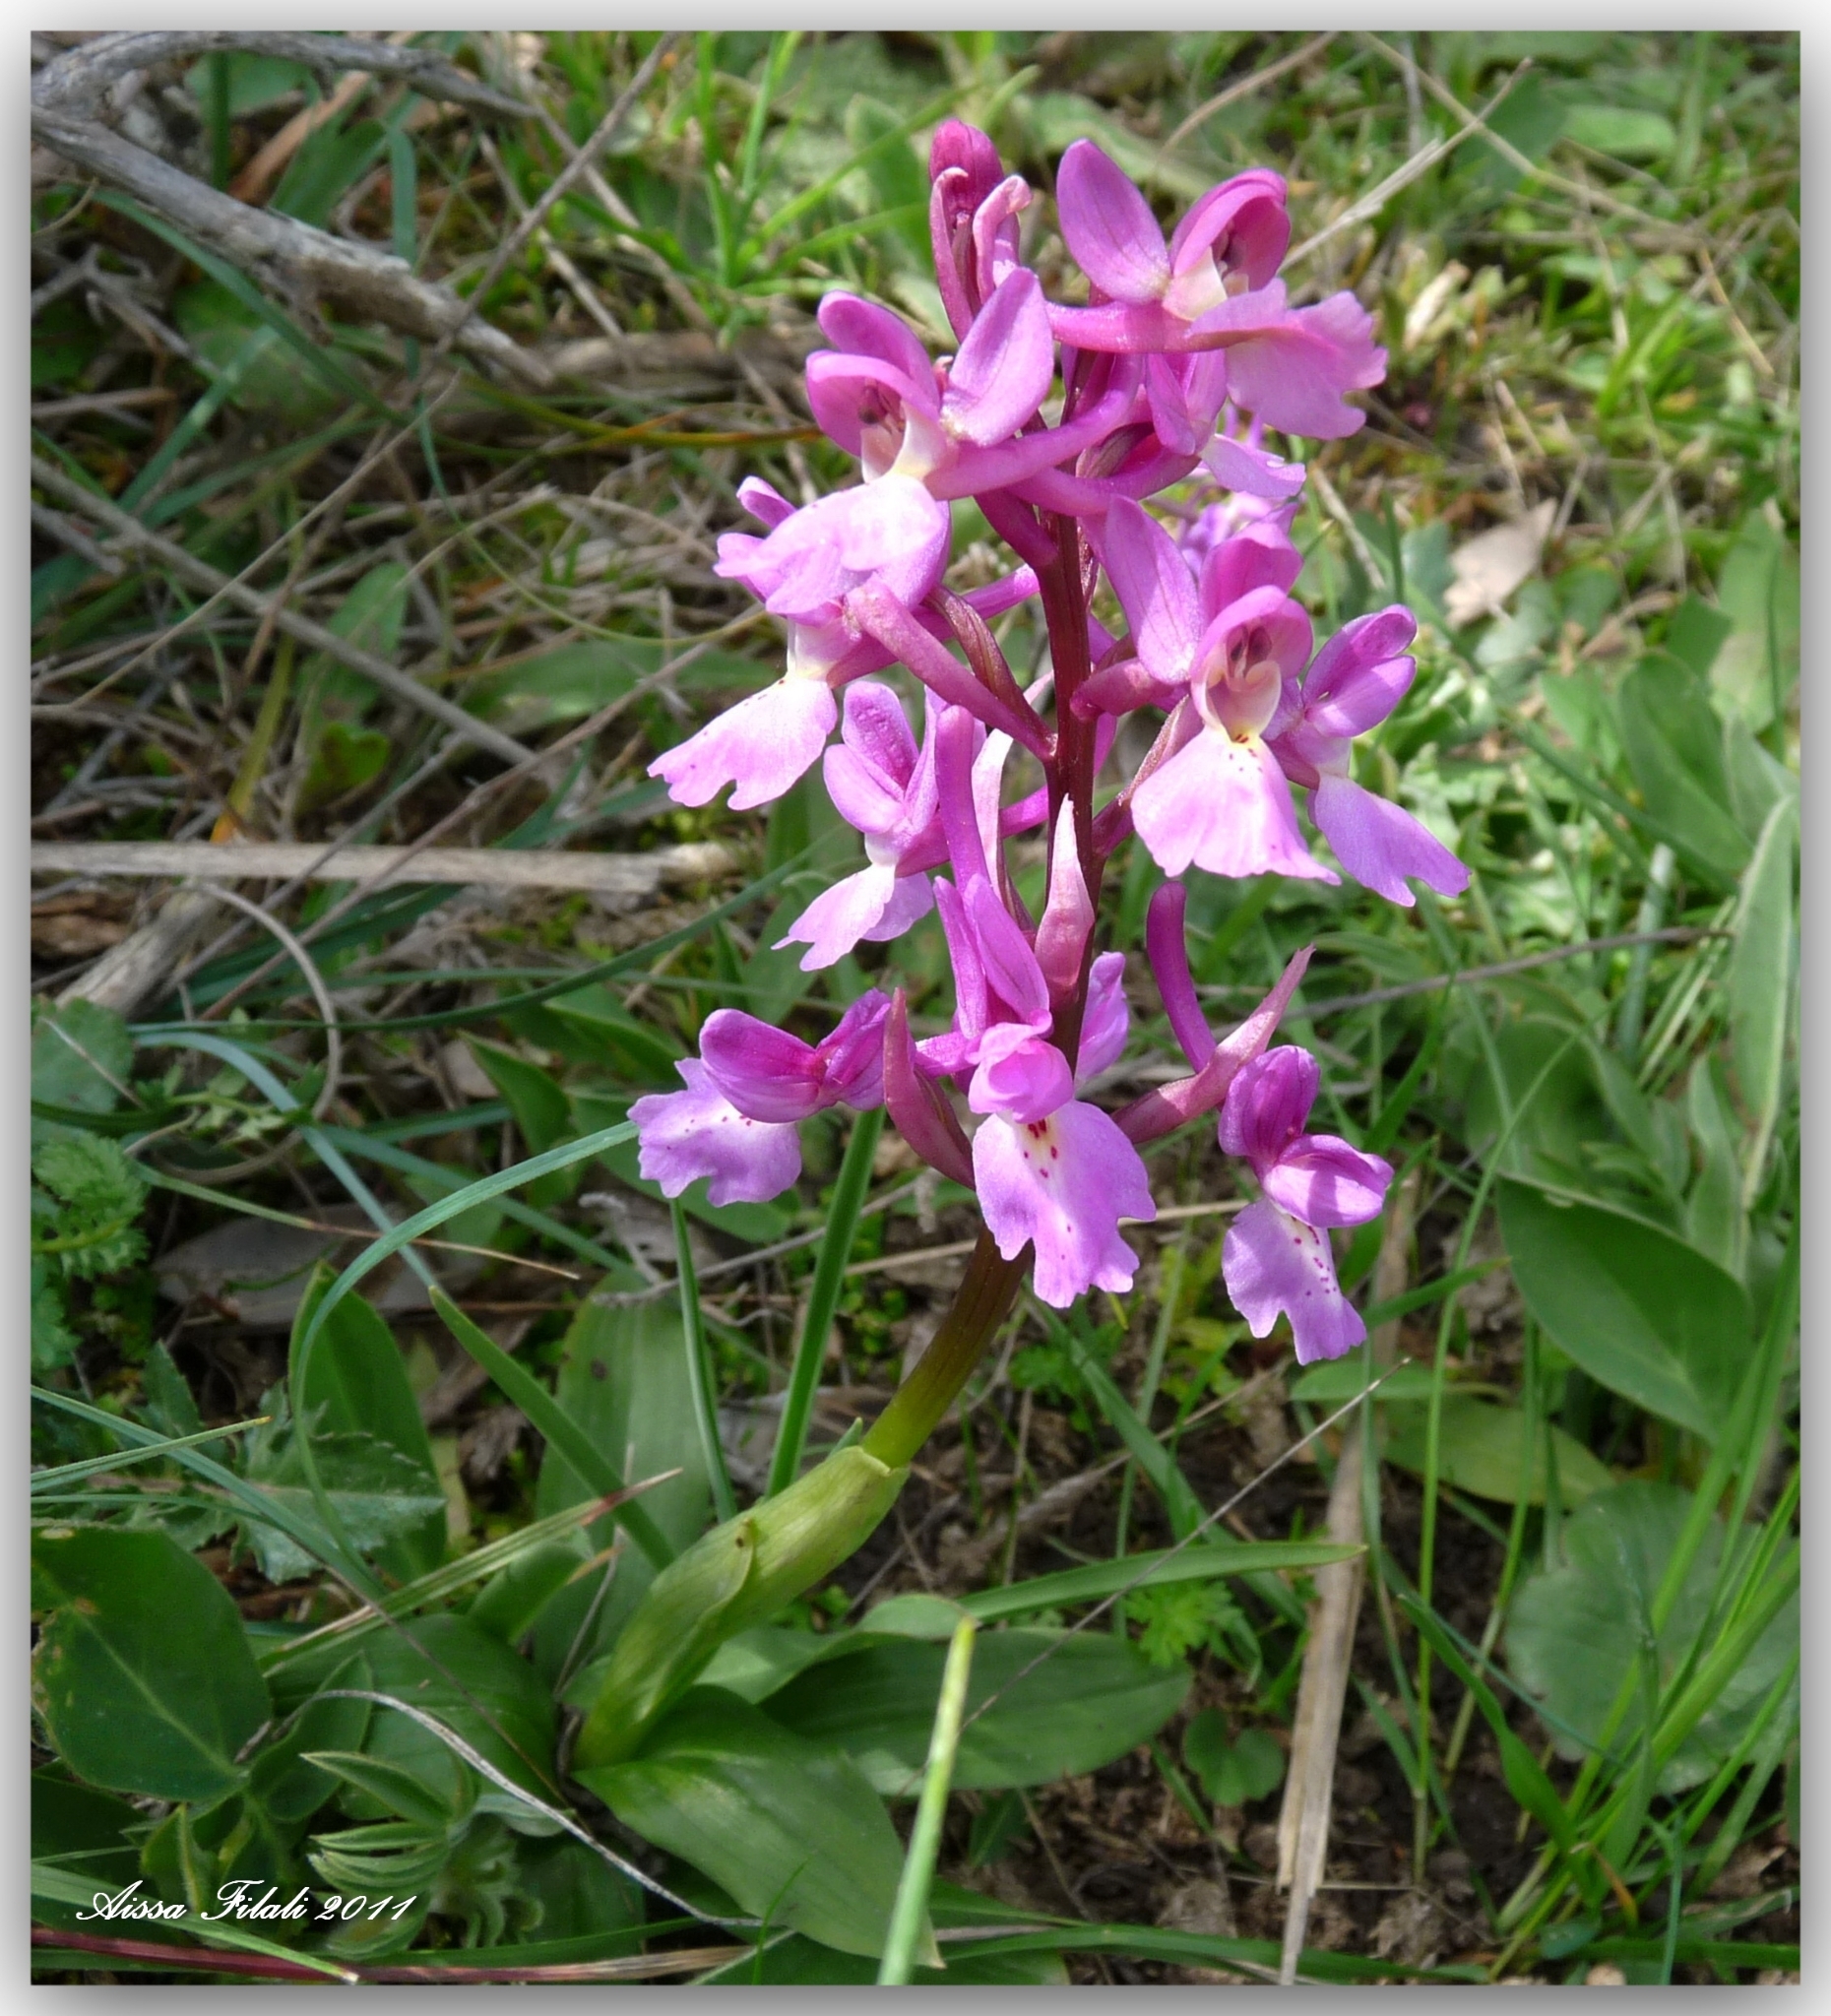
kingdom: Plantae
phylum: Tracheophyta
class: Liliopsida
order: Asparagales
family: Orchidaceae
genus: Orchis
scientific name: Orchis laeta
